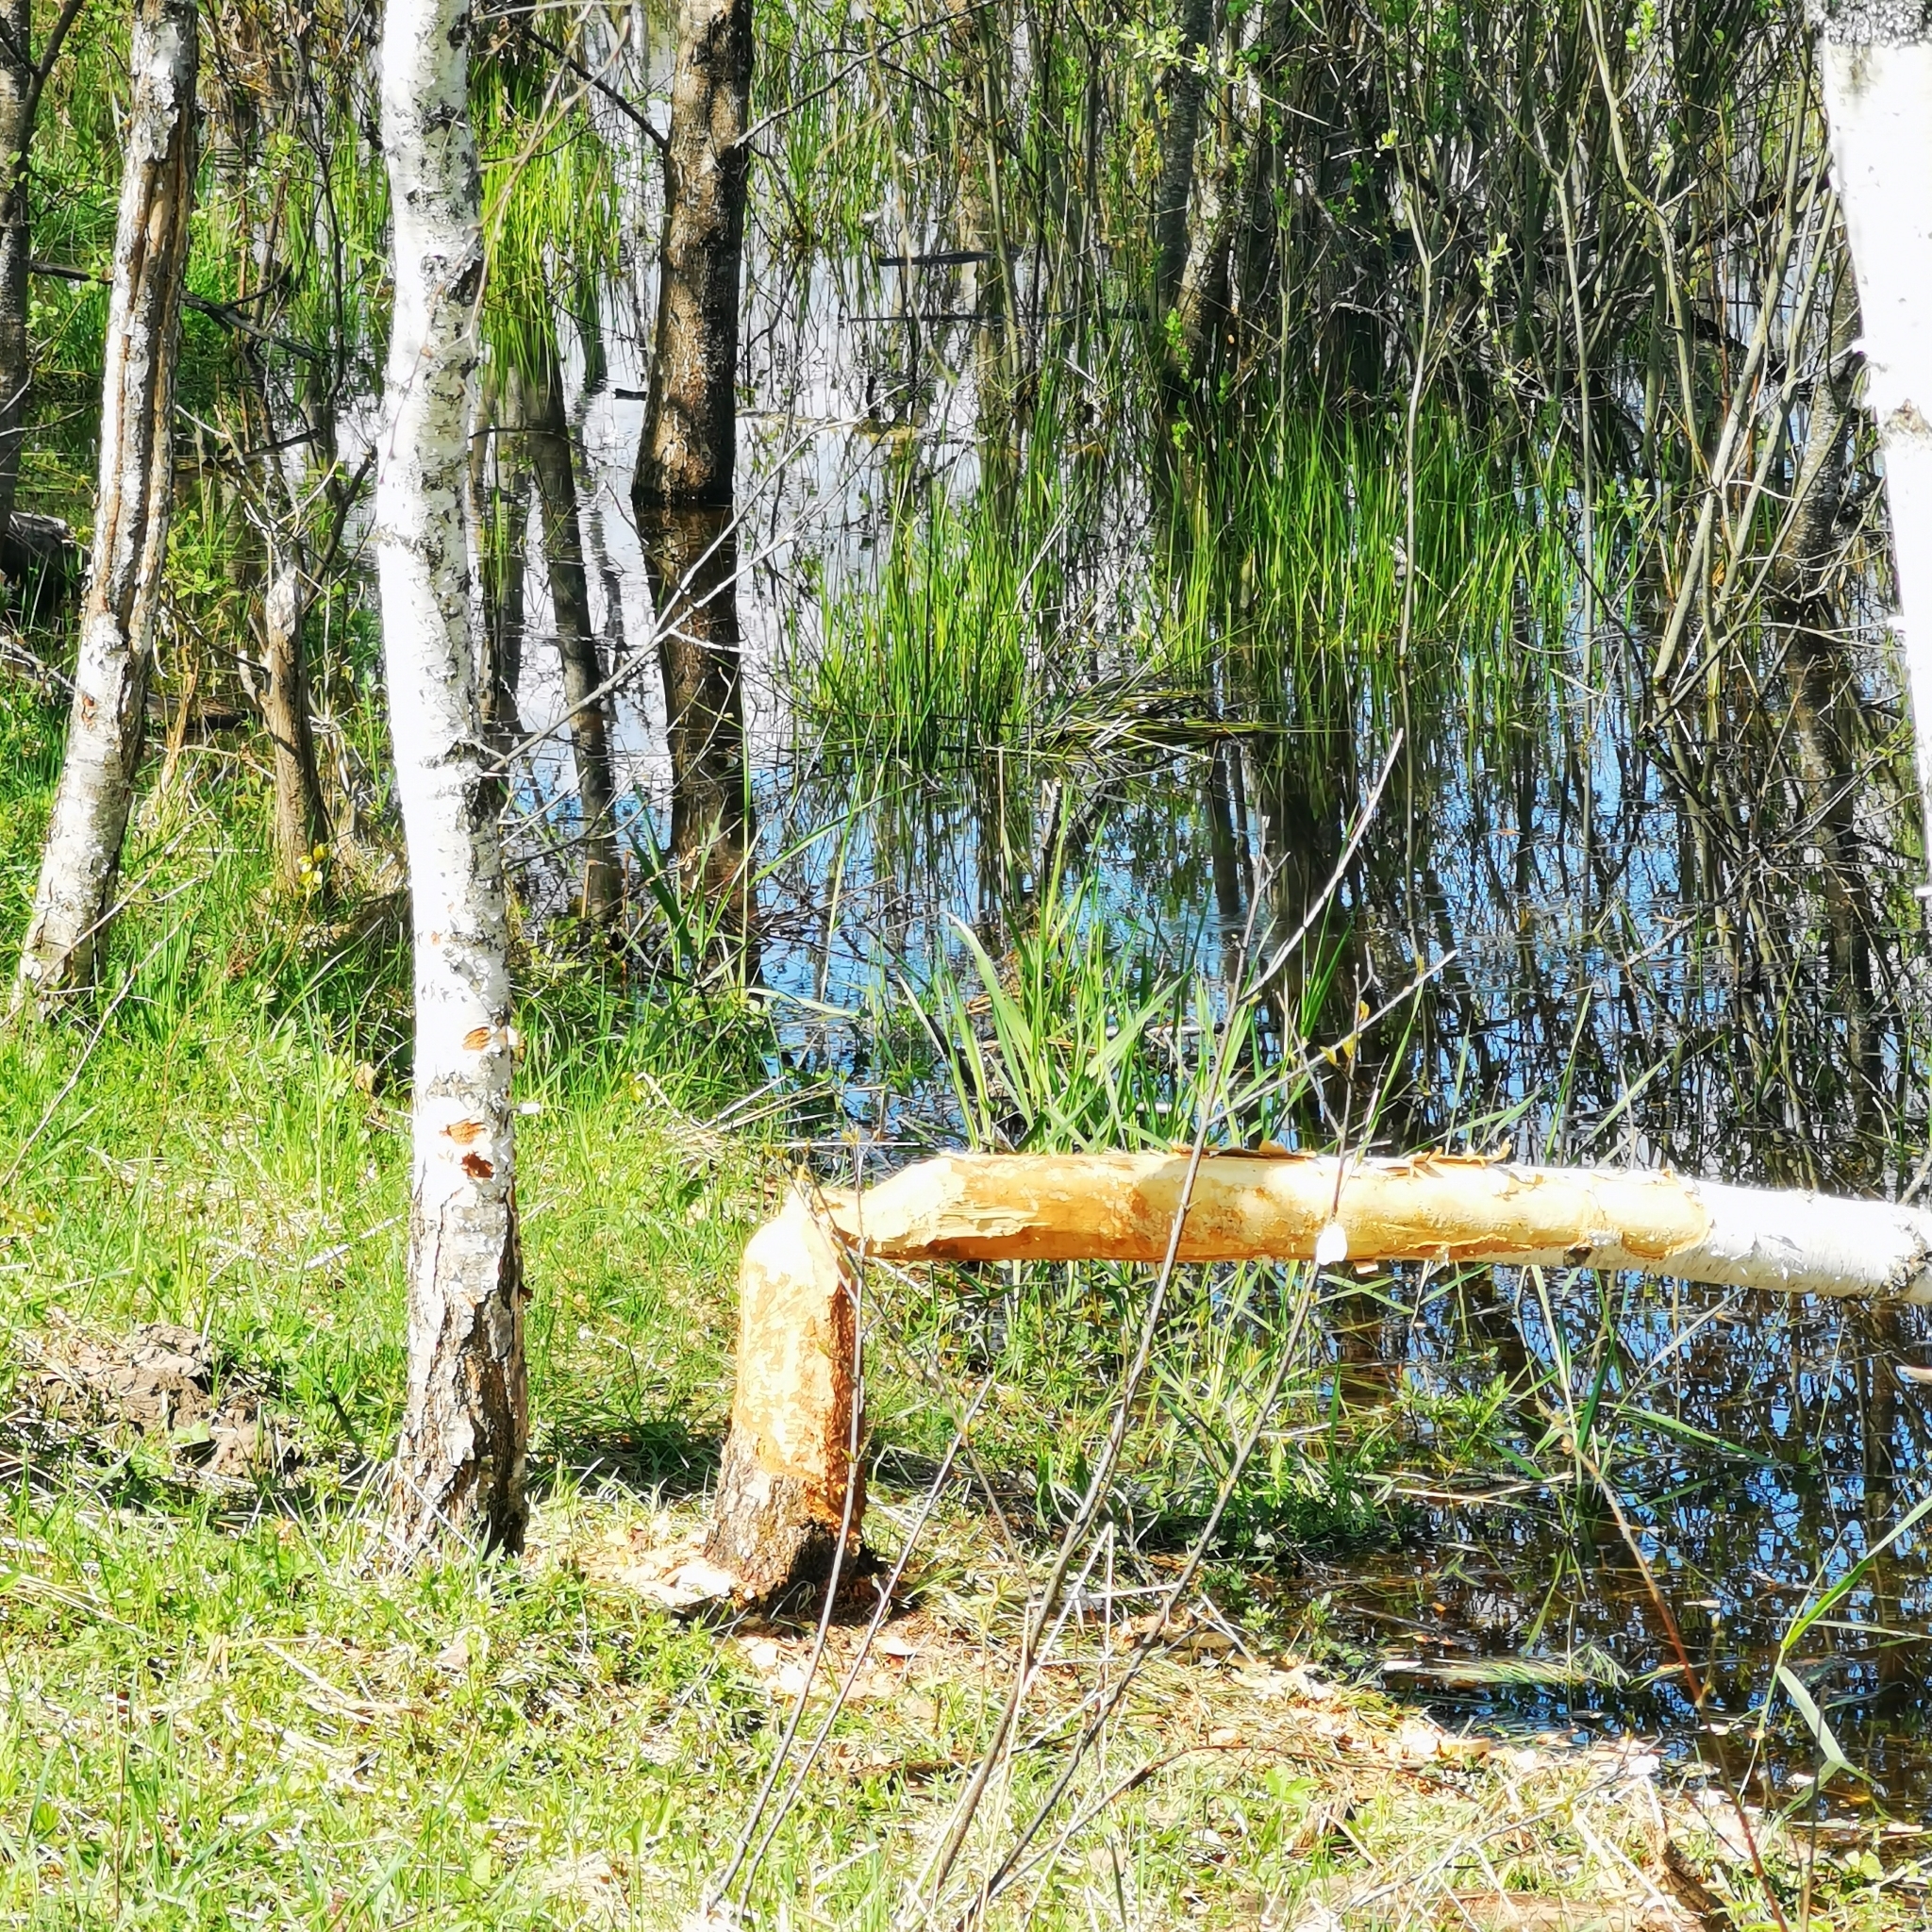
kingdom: Animalia
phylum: Chordata
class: Mammalia
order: Rodentia
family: Castoridae
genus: Castor
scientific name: Castor fiber
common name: Eurasian beaver
